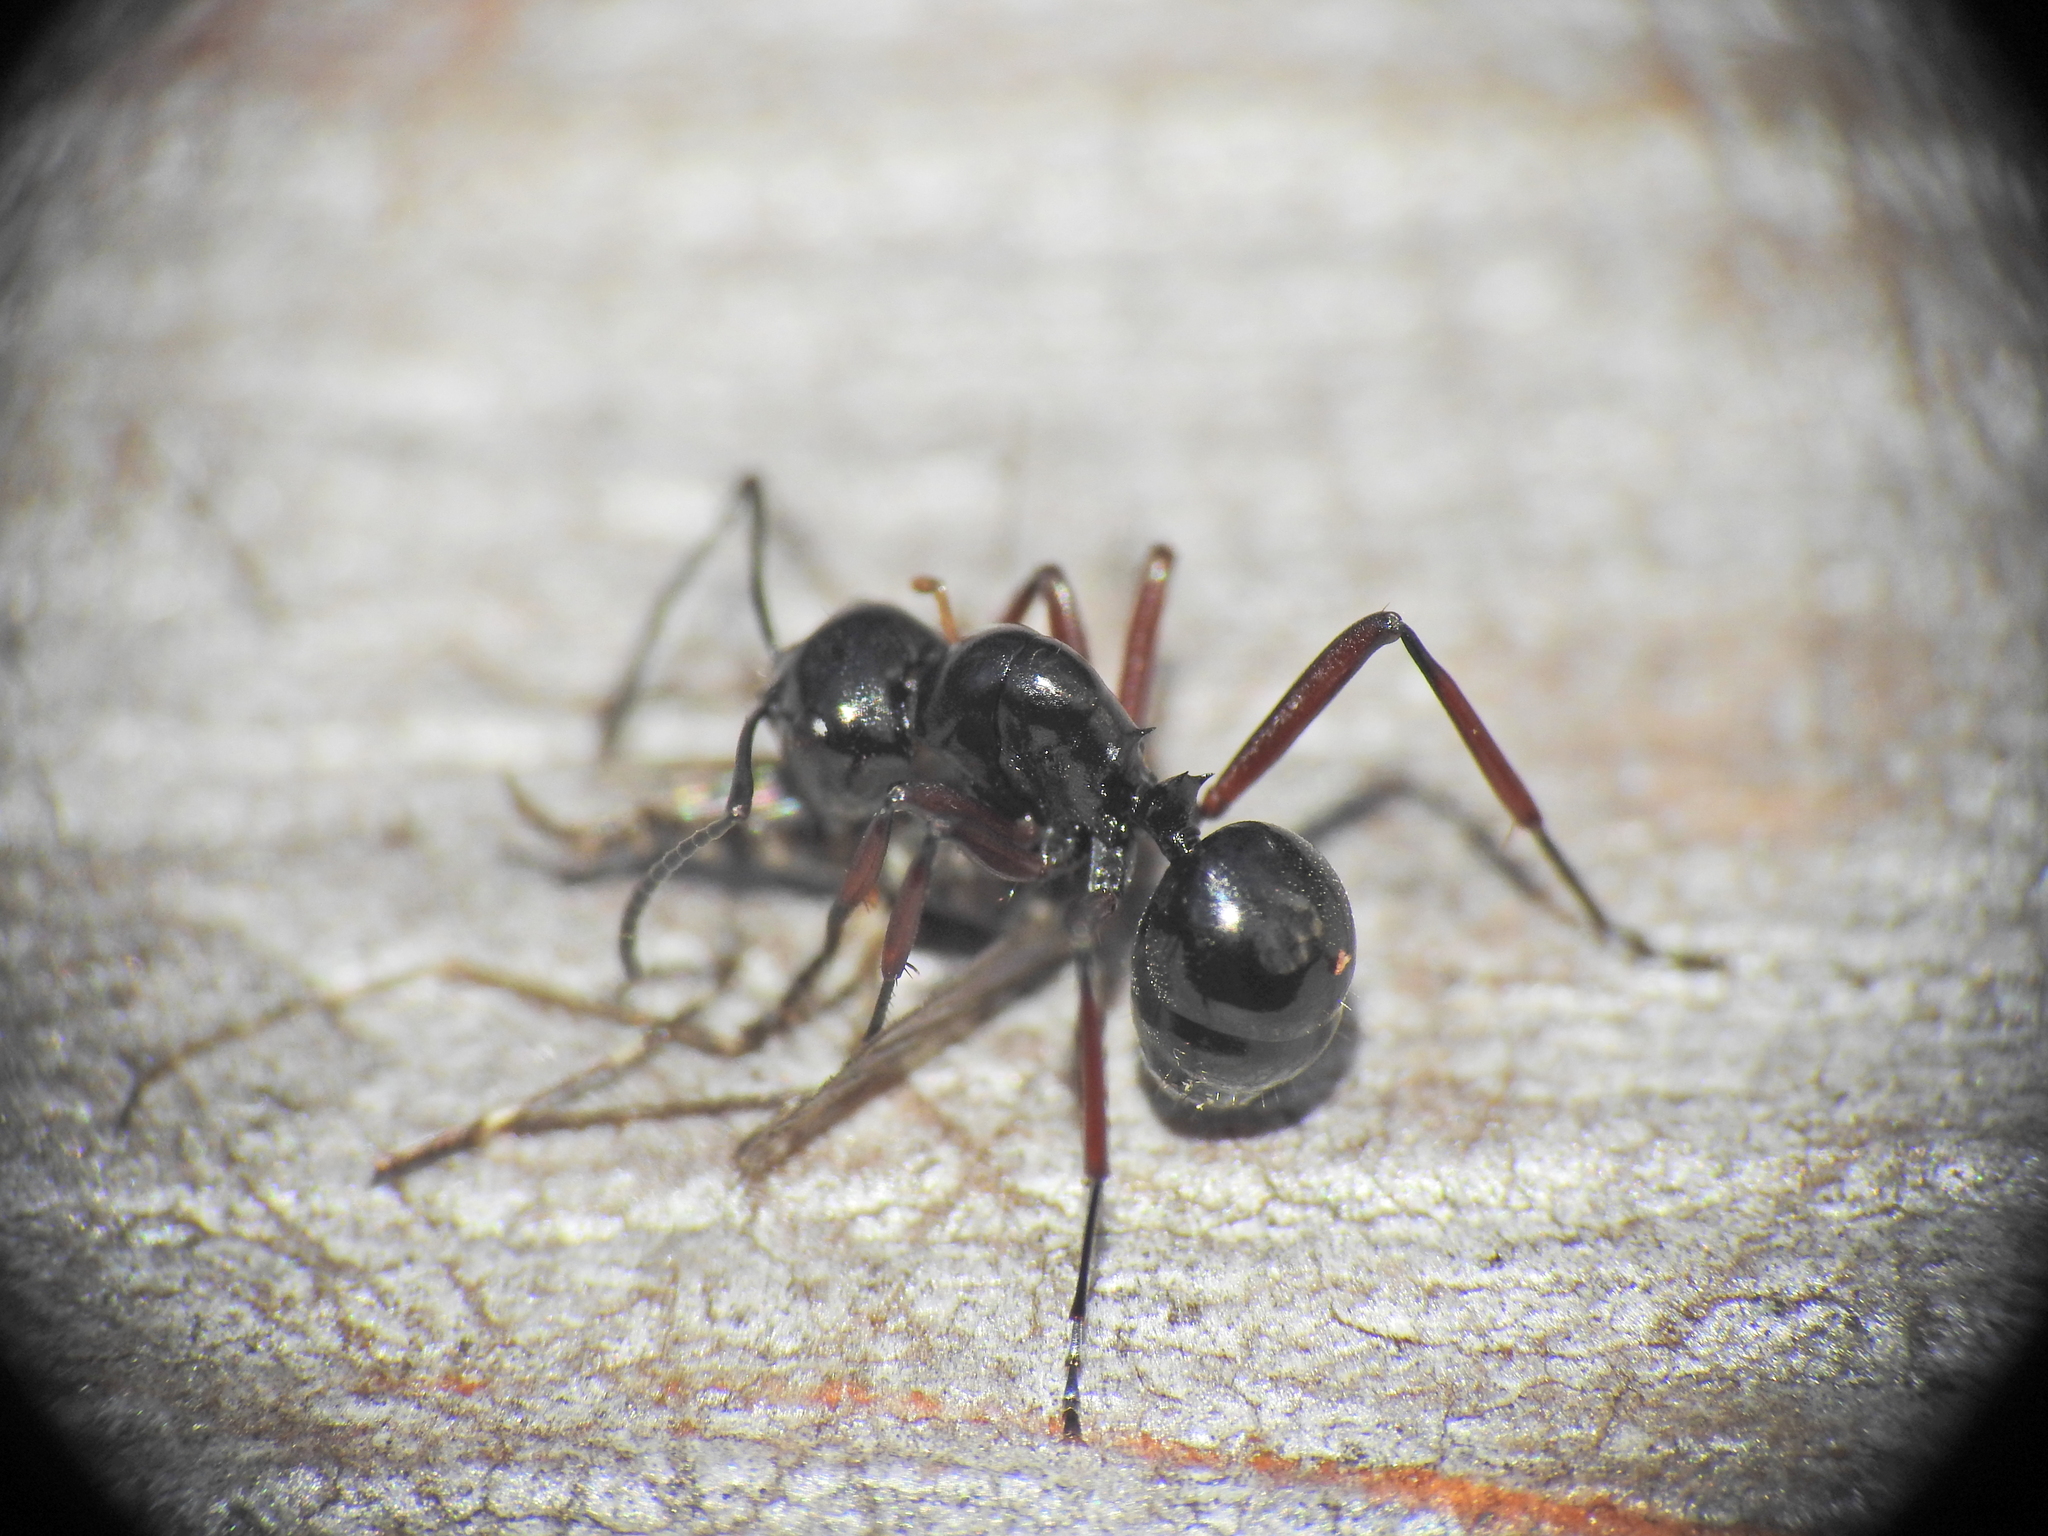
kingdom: Animalia
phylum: Arthropoda
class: Insecta
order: Hymenoptera
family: Formicidae
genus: Polyrhachis
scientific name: Polyrhachis australis
